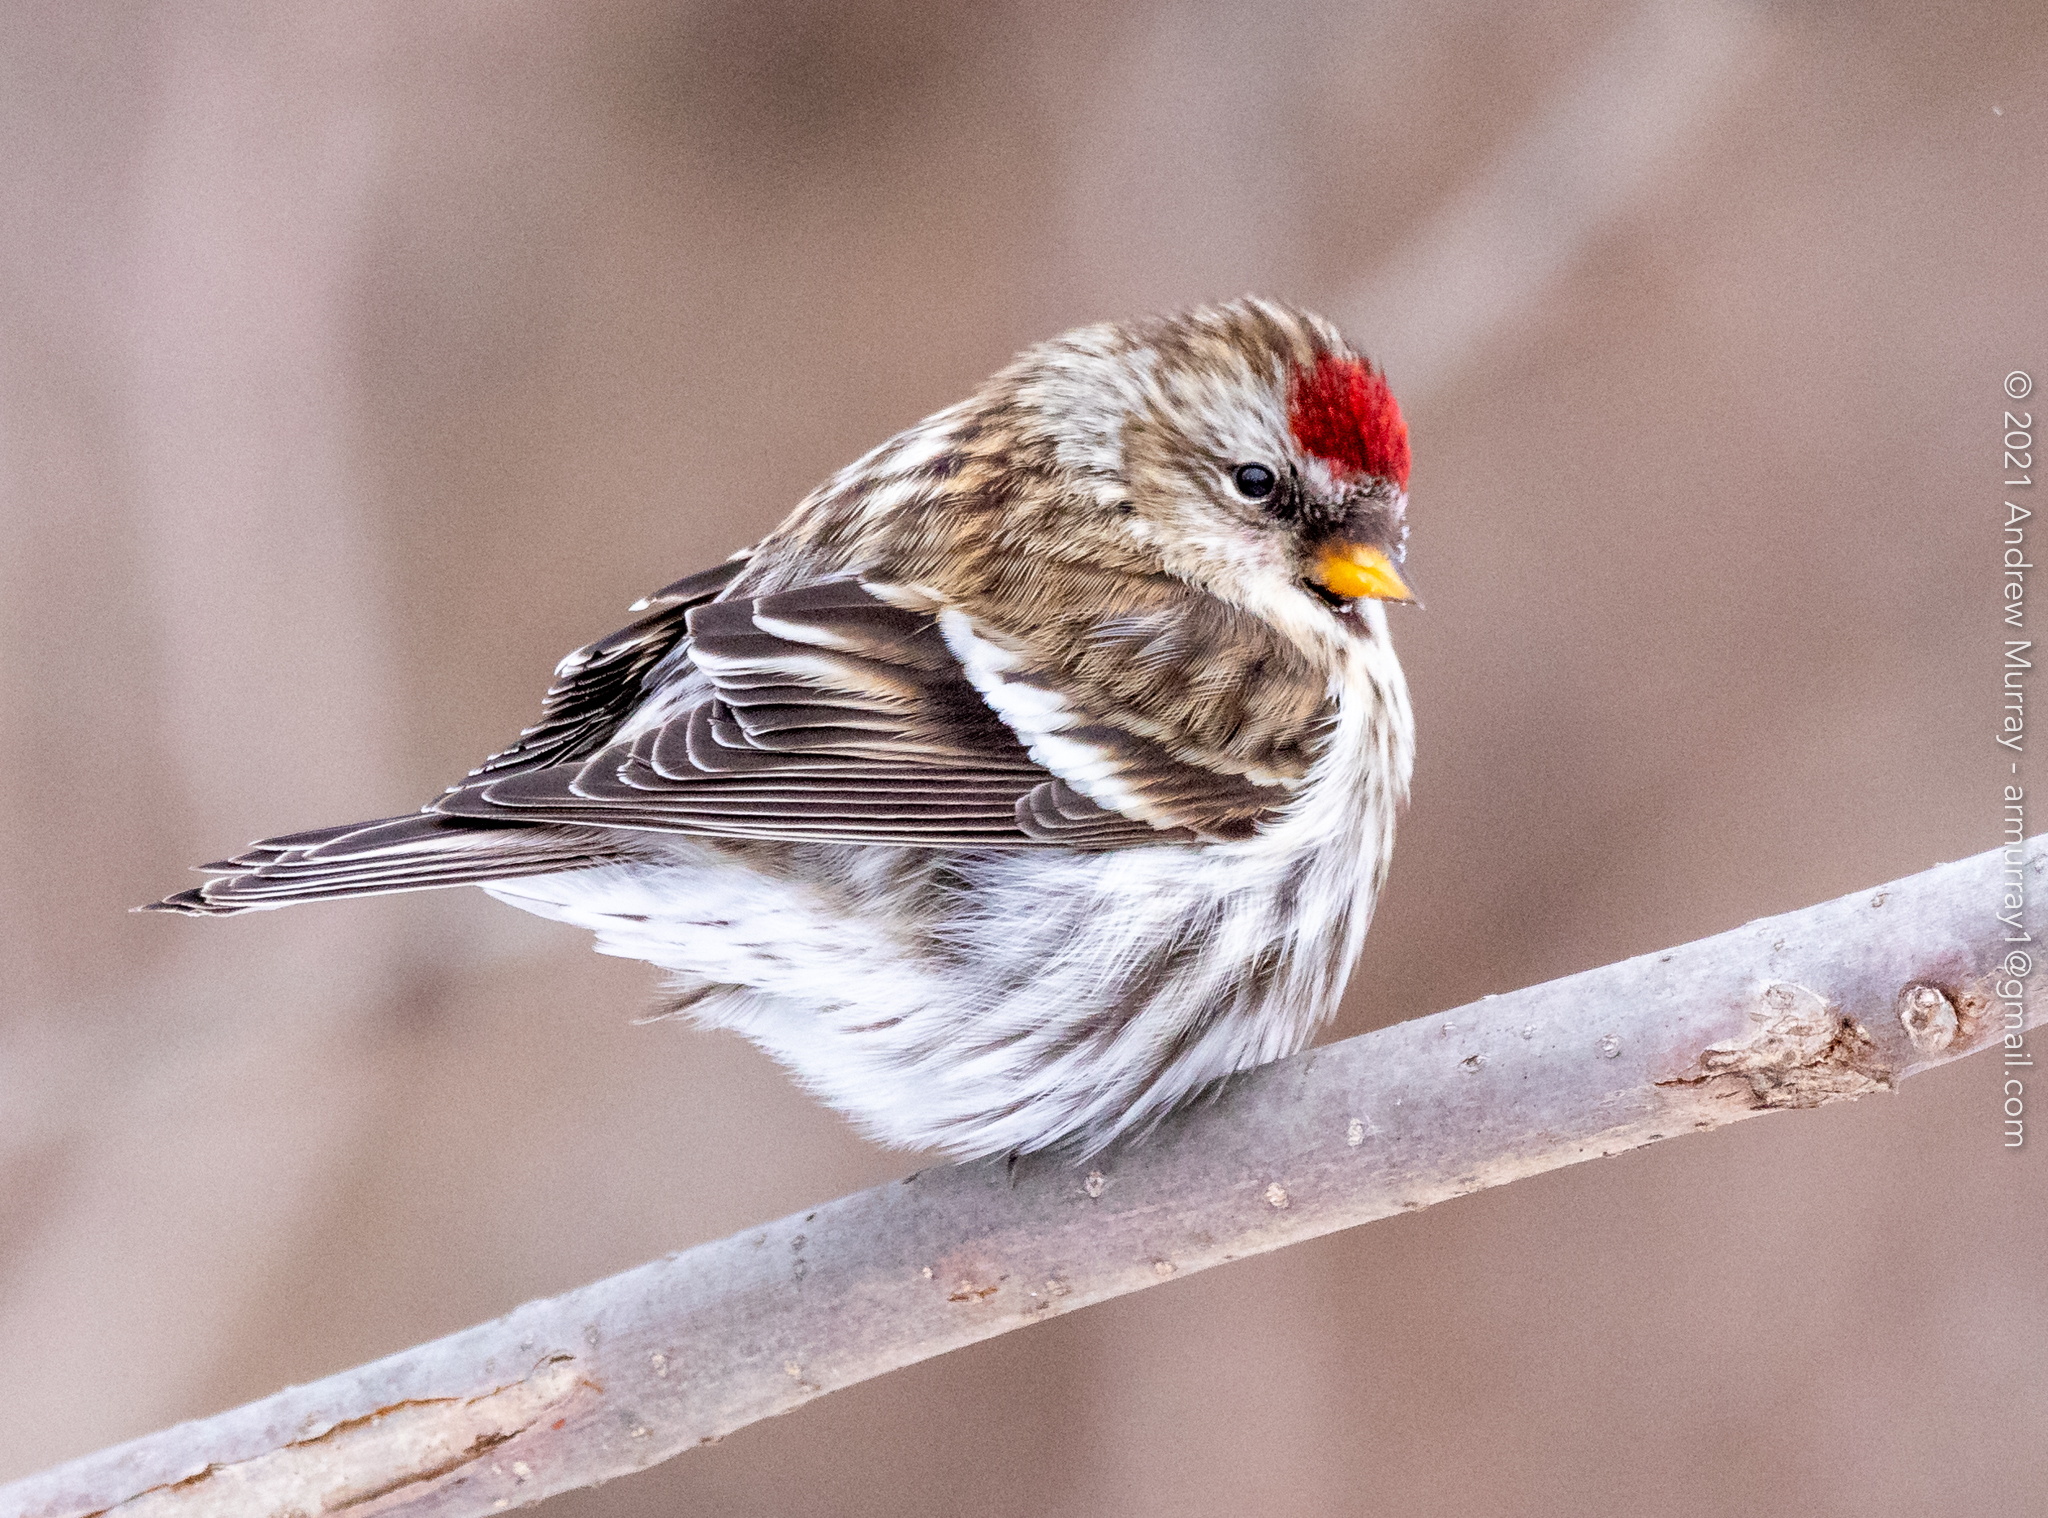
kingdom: Animalia
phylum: Chordata
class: Aves
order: Passeriformes
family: Fringillidae
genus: Acanthis
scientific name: Acanthis flammea
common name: Common redpoll
